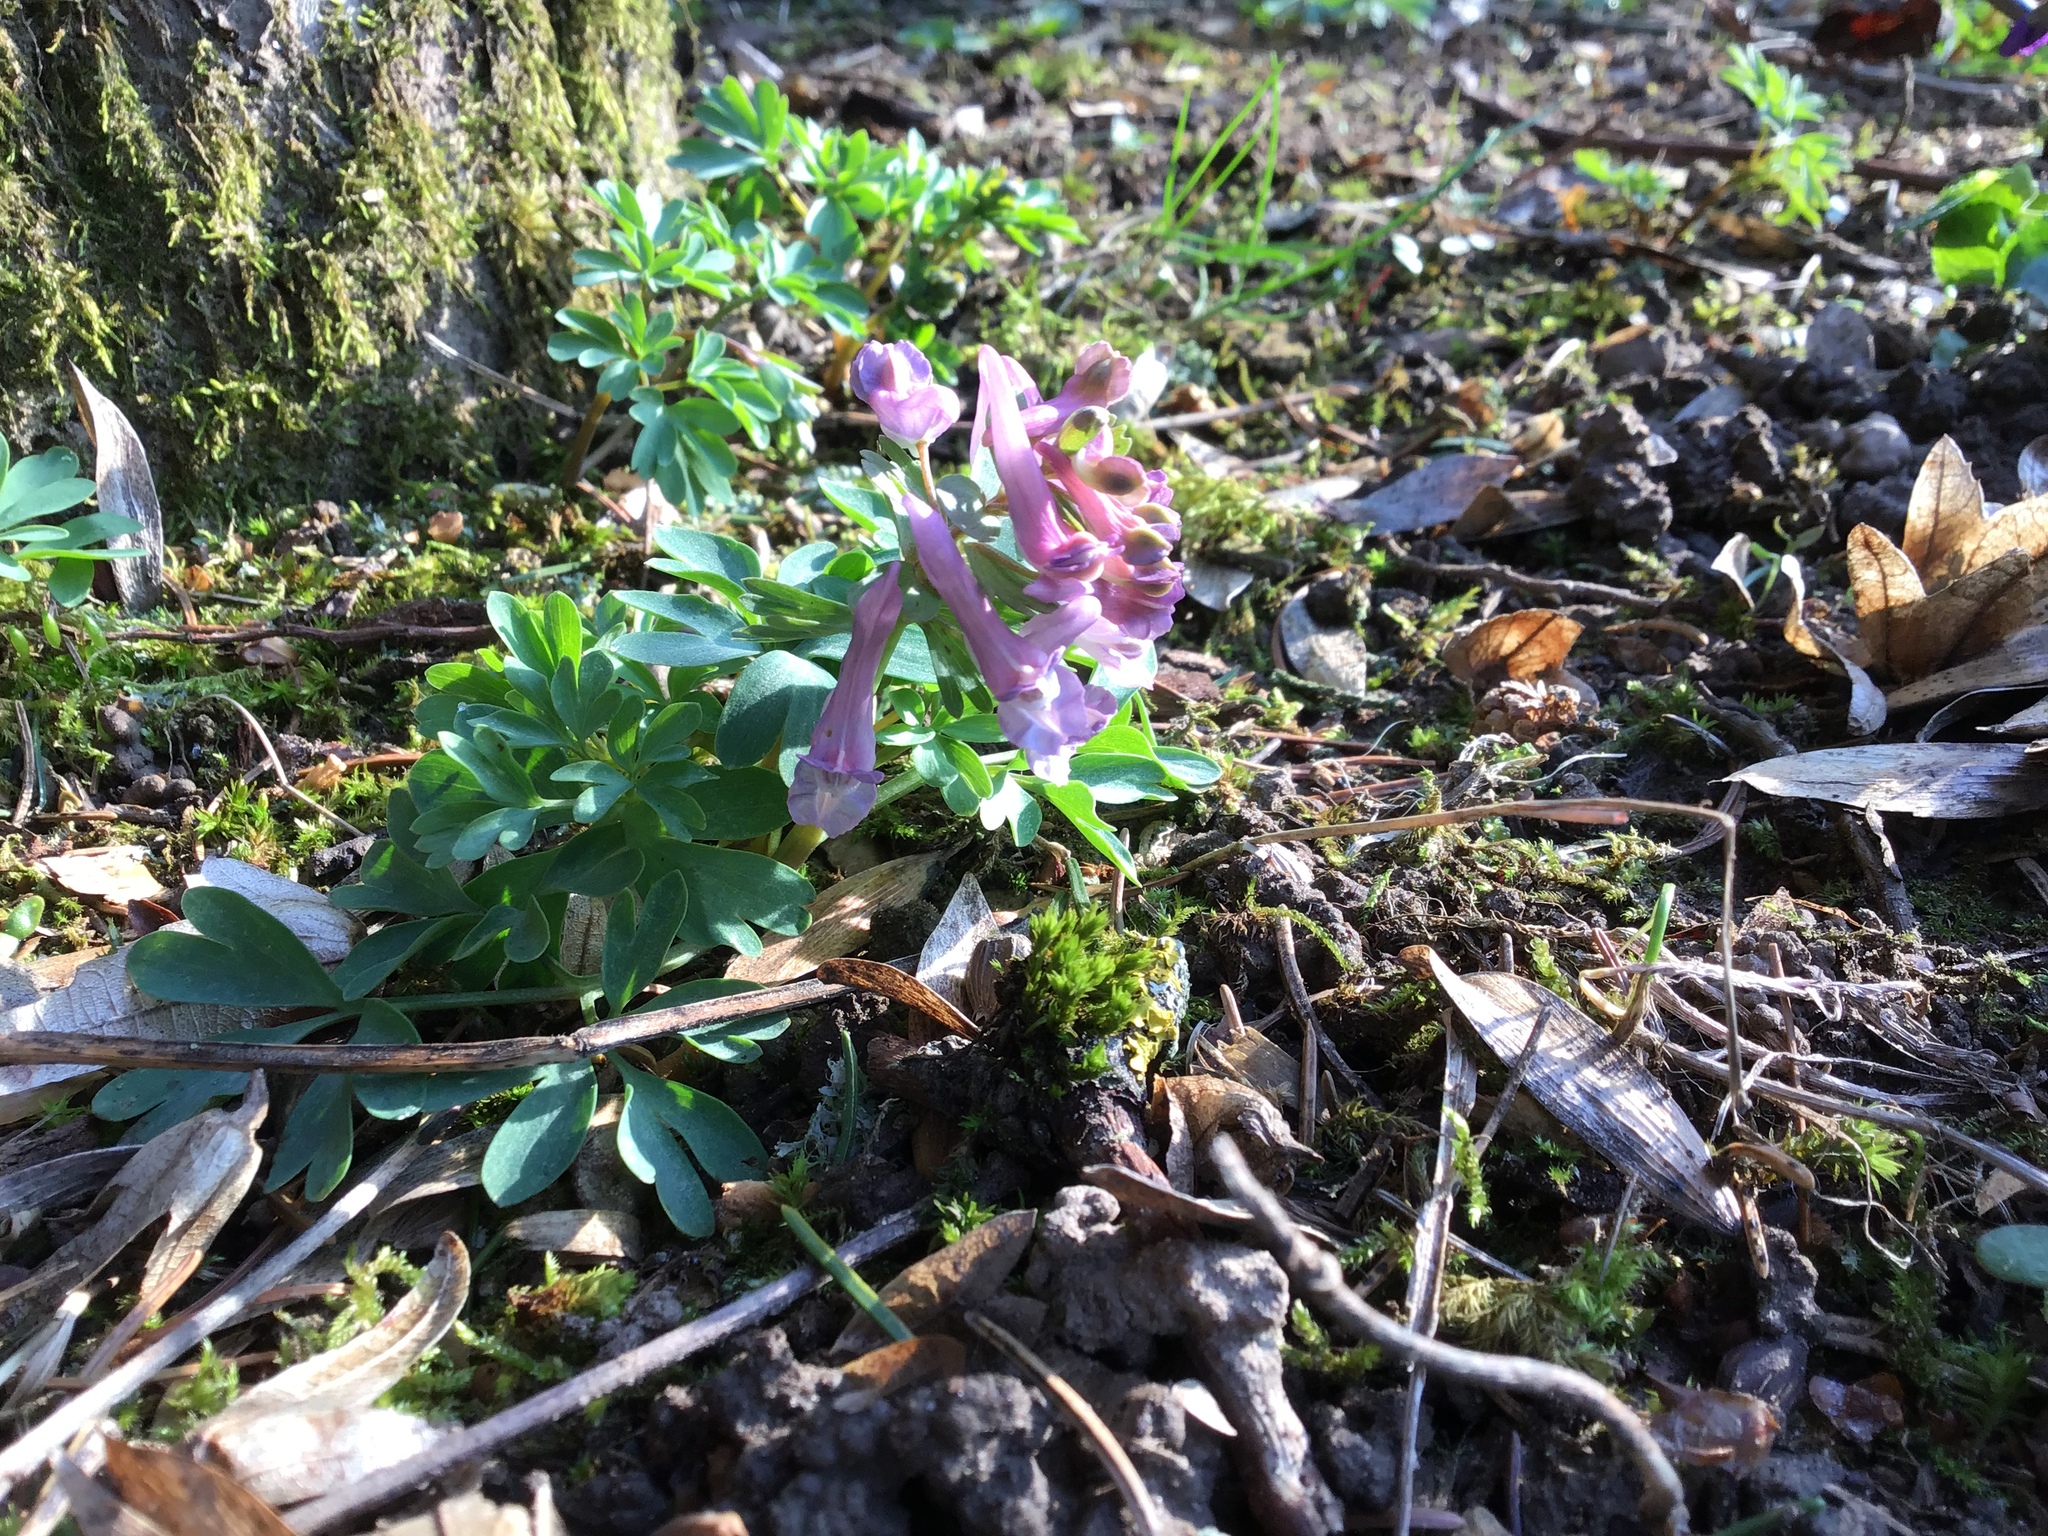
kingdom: Plantae
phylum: Tracheophyta
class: Magnoliopsida
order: Ranunculales
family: Papaveraceae
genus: Corydalis
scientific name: Corydalis solida
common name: Bird-in-a-bush
